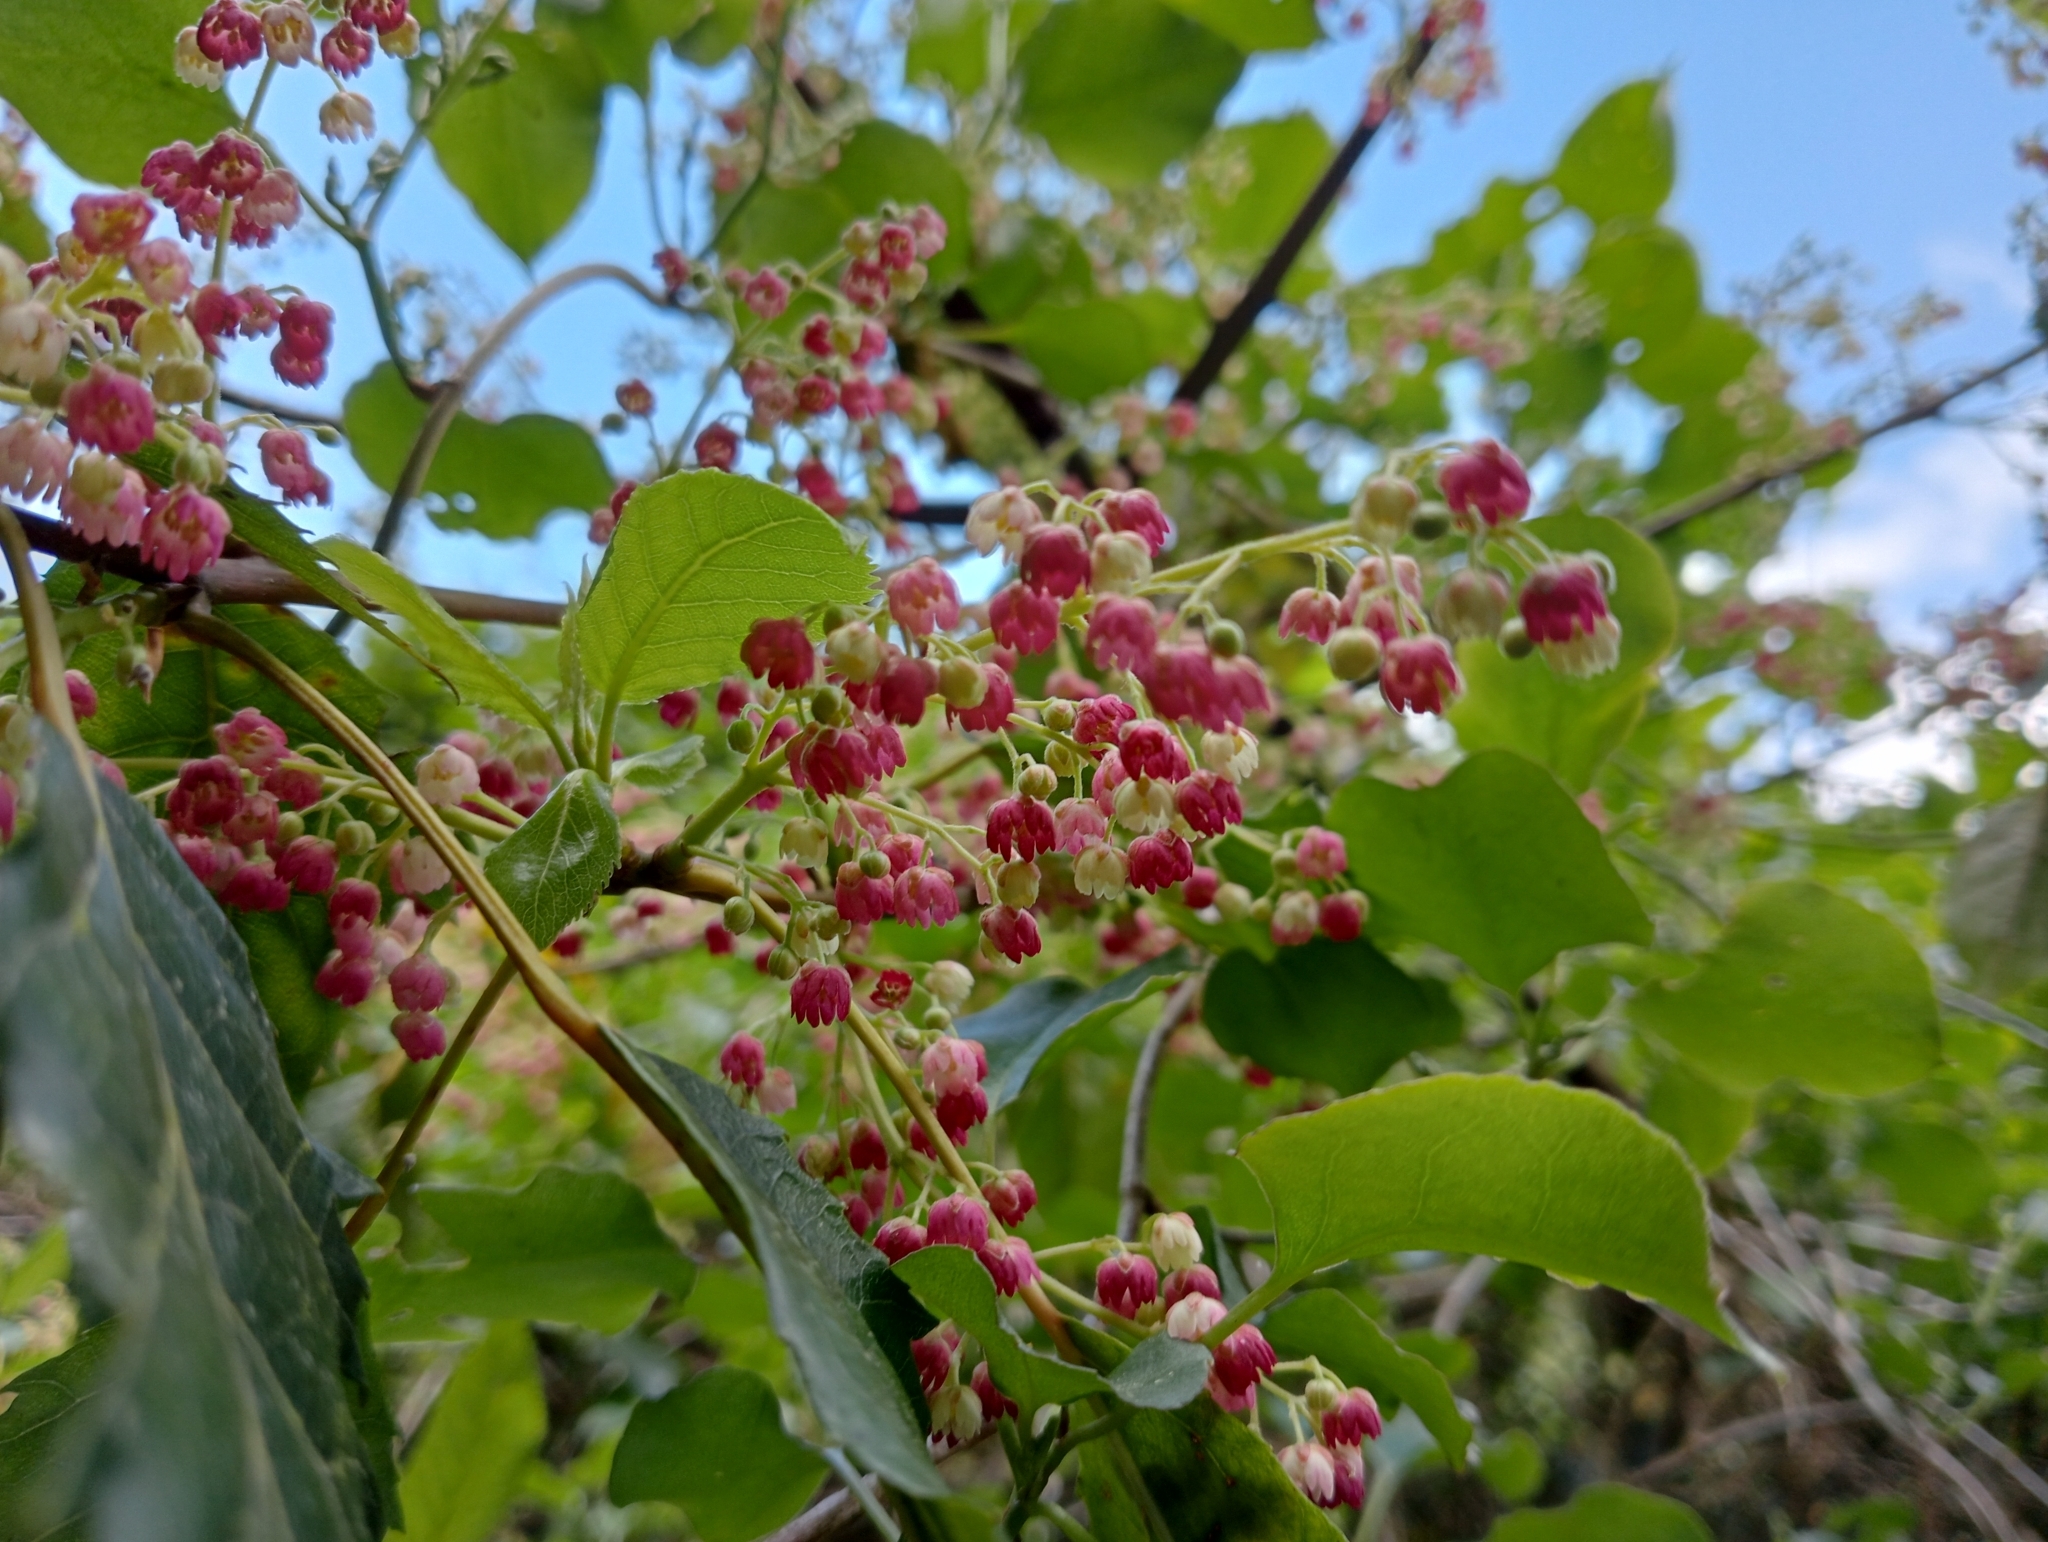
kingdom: Plantae
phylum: Tracheophyta
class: Magnoliopsida
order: Oxalidales
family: Elaeocarpaceae
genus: Aristotelia
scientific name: Aristotelia serrata
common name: New zealand wineberry
